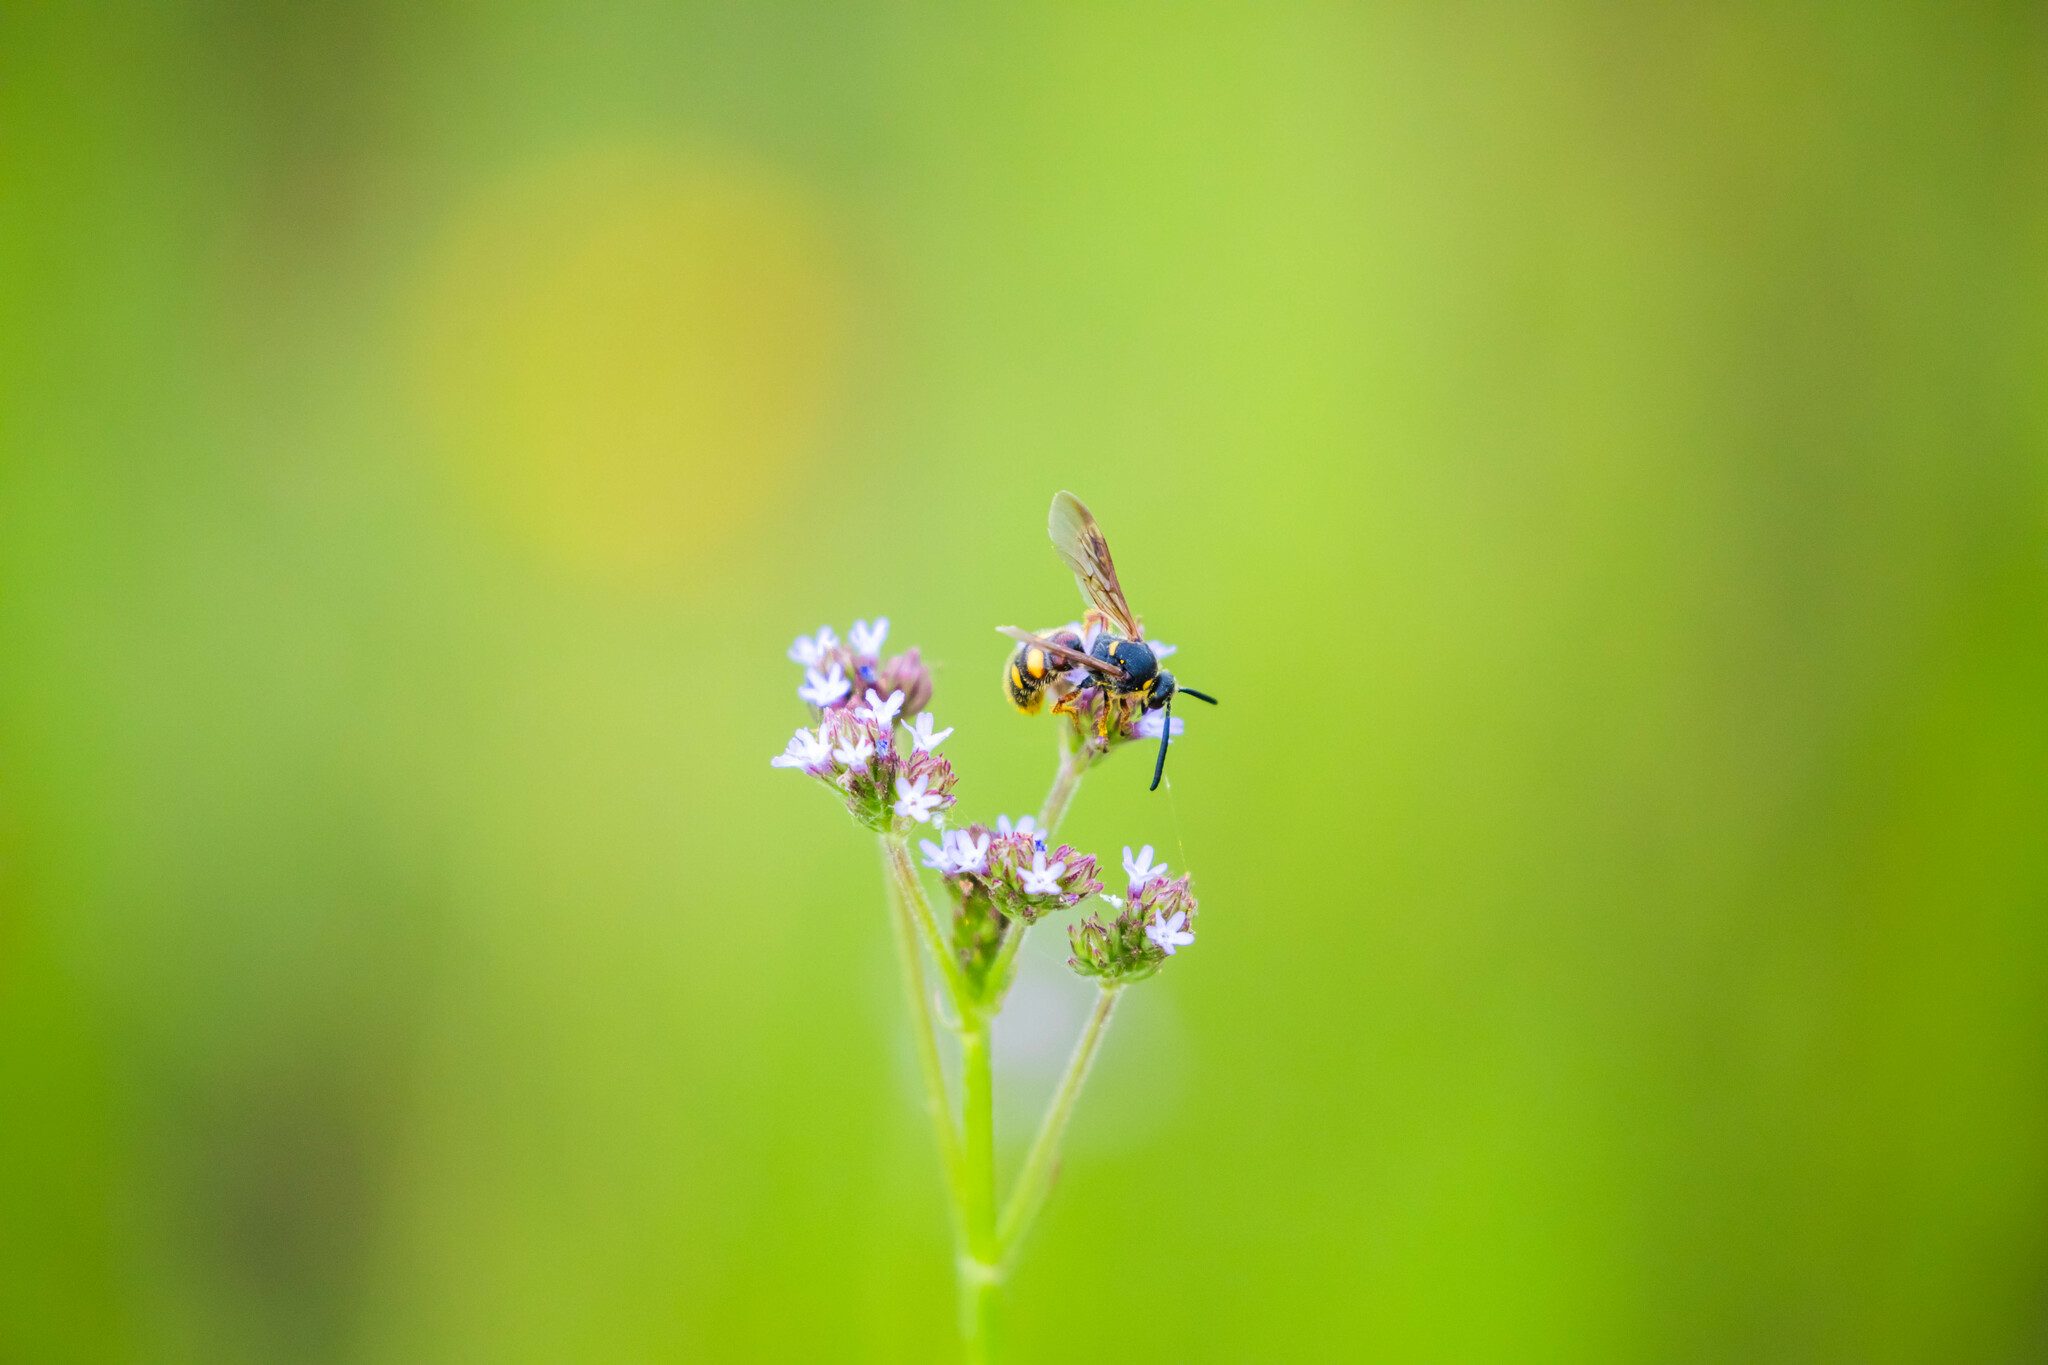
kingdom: Animalia
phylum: Arthropoda
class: Insecta
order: Hymenoptera
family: Scoliidae
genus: Scolia
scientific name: Scolia nobilitata
